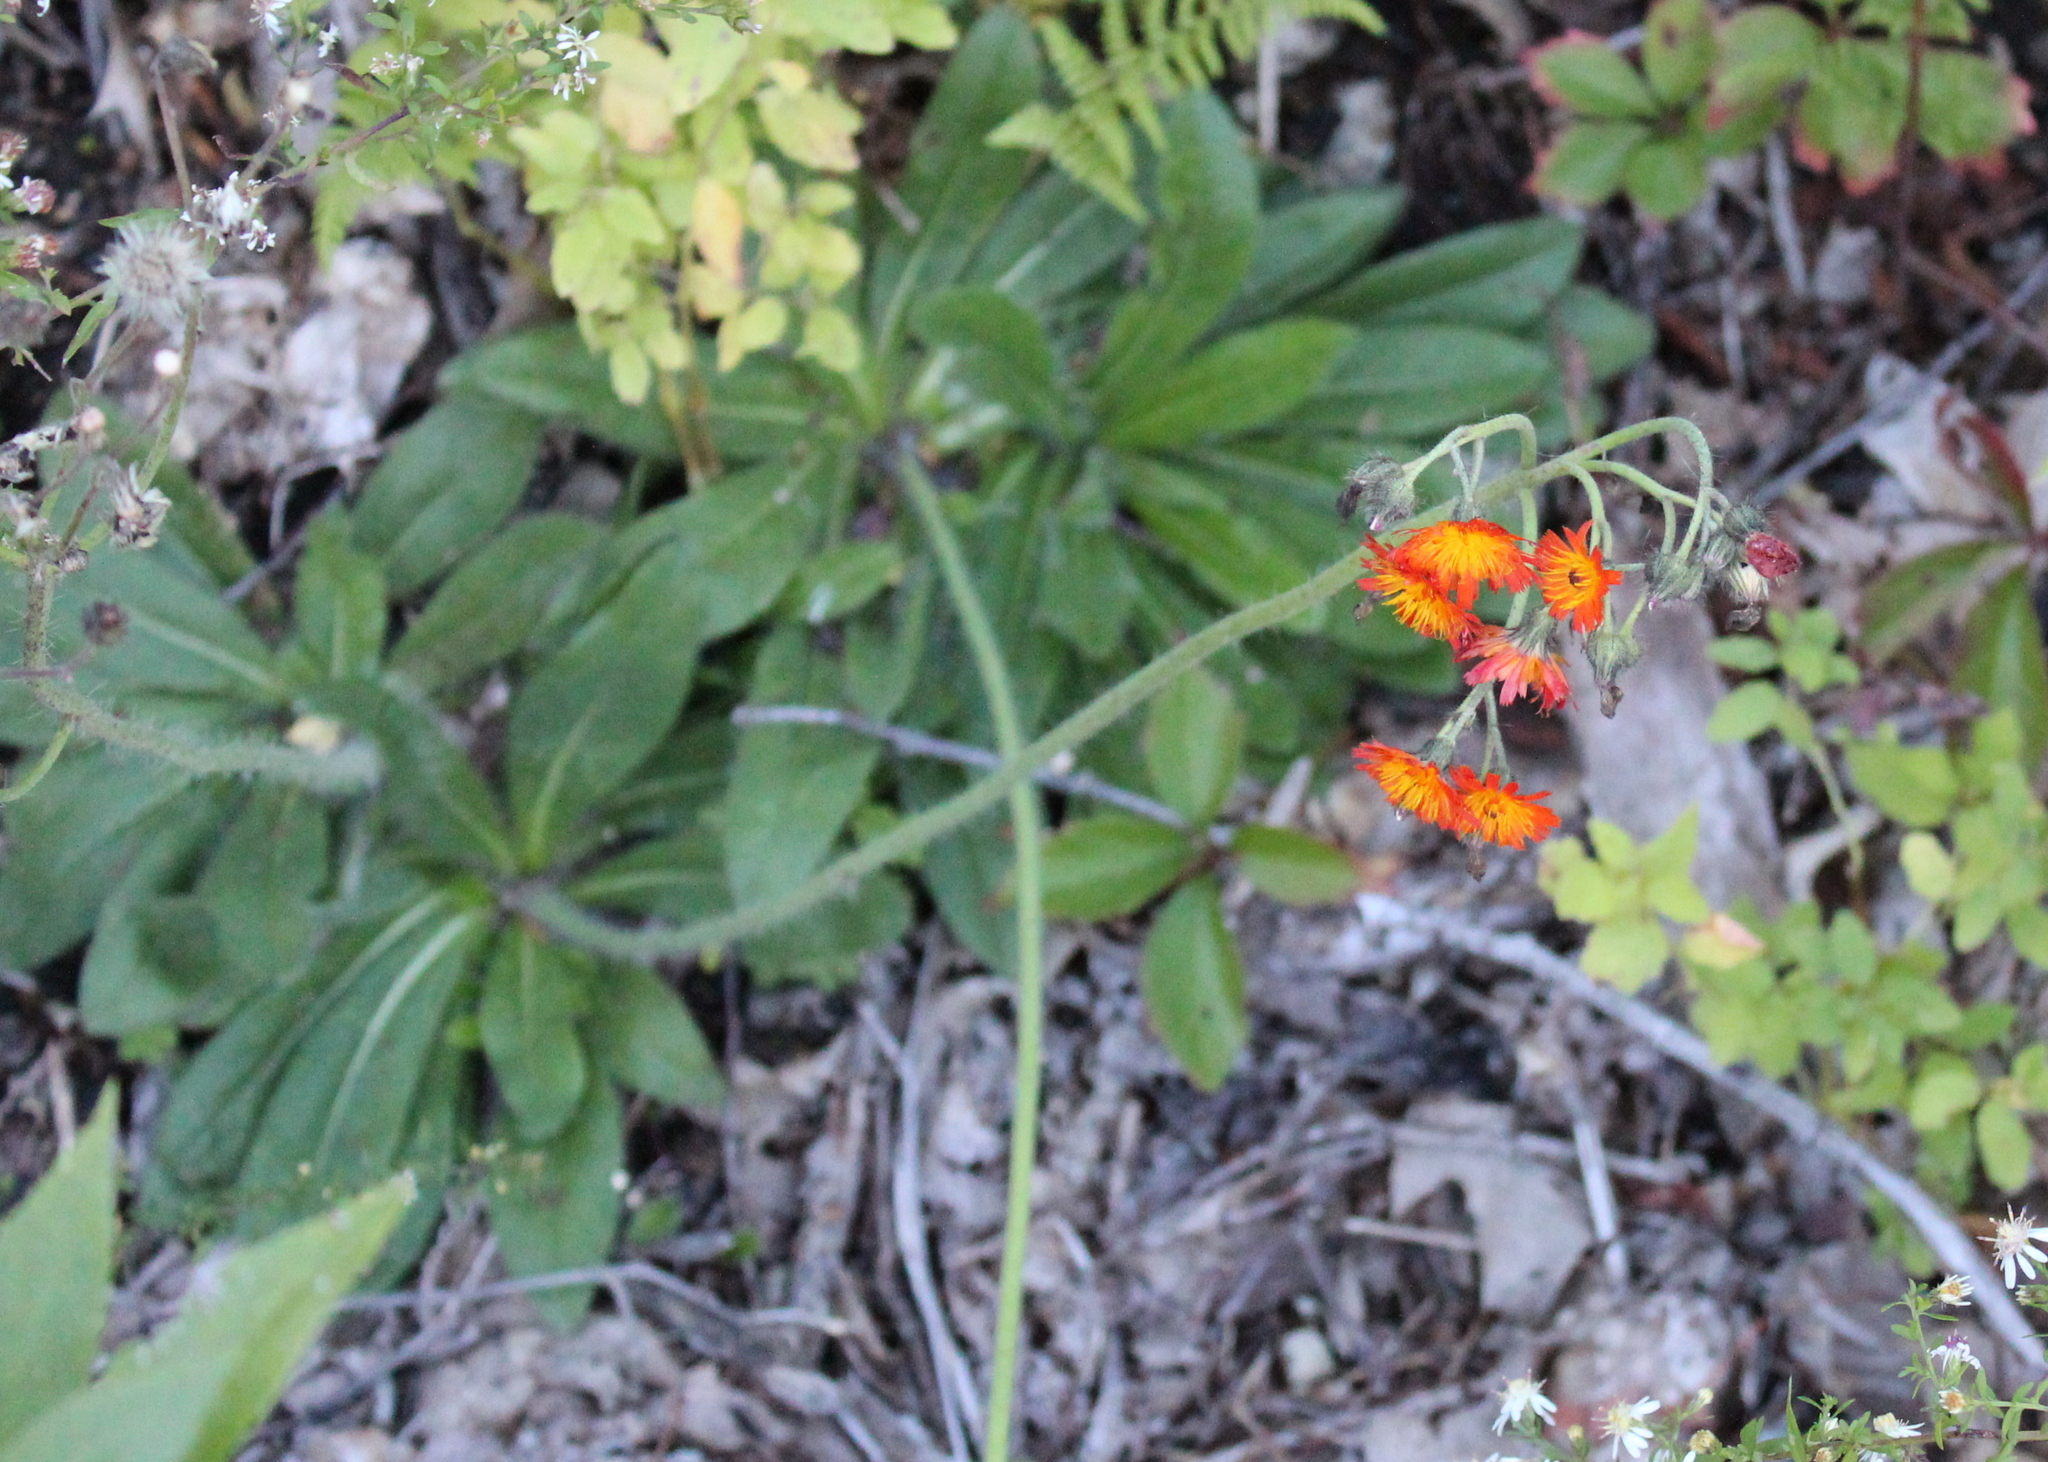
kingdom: Plantae
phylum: Tracheophyta
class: Magnoliopsida
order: Asterales
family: Asteraceae
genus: Pilosella
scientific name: Pilosella aurantiaca
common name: Fox-and-cubs
